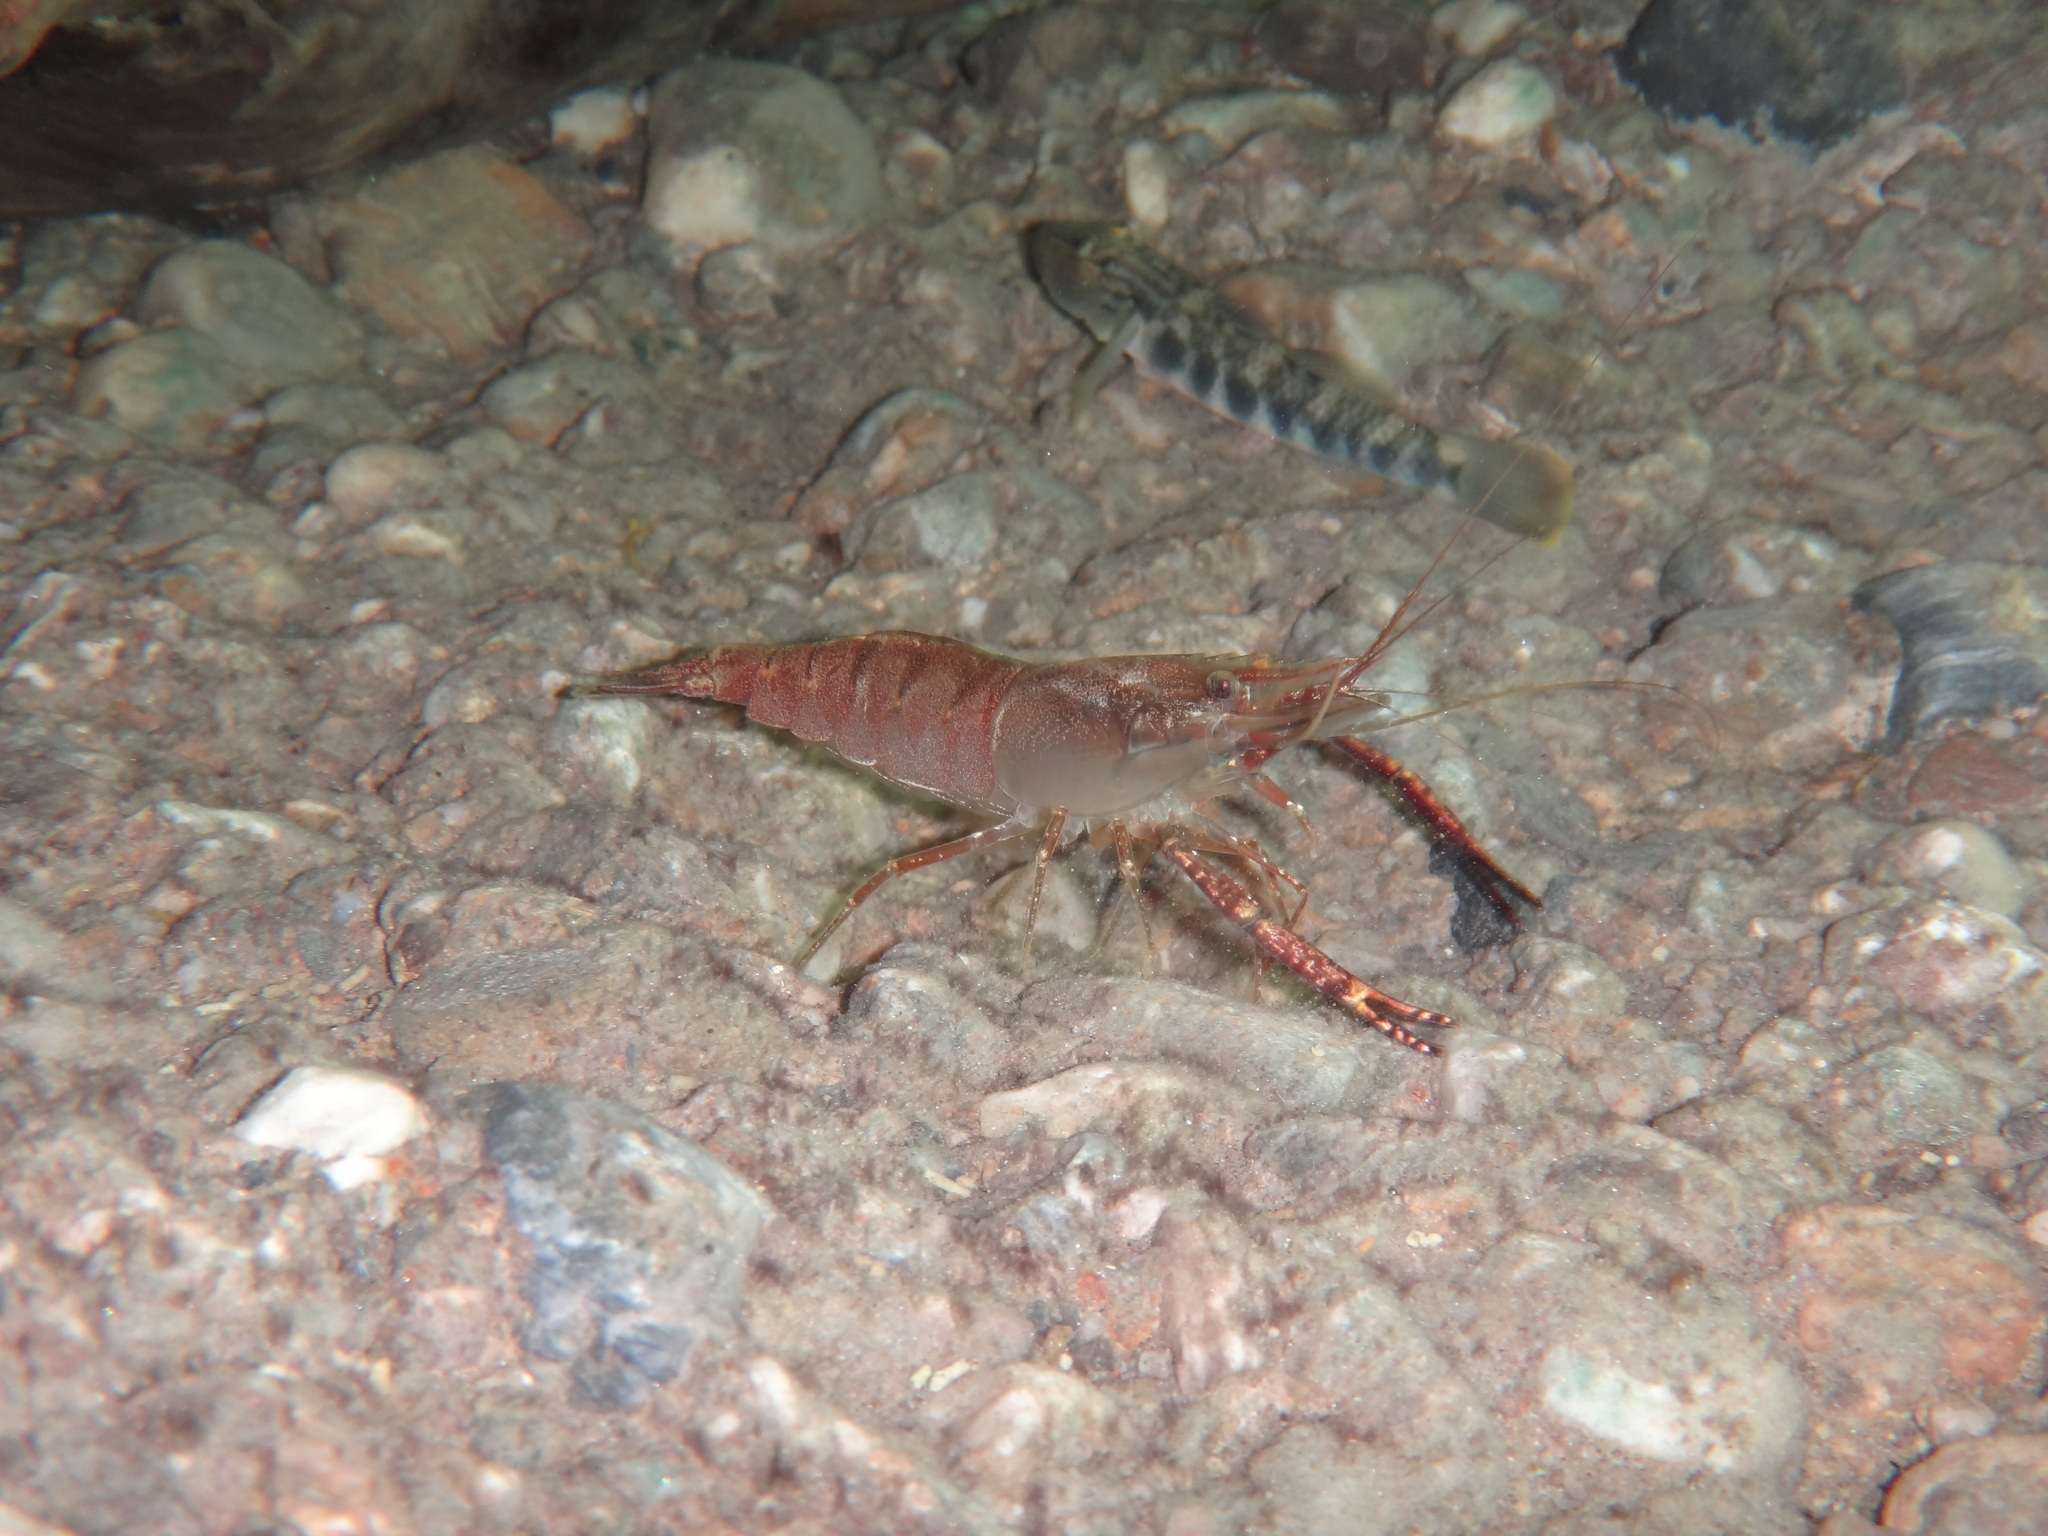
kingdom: Animalia
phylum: Arthropoda
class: Malacostraca
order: Decapoda
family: Palaemonidae
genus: Macrobrachium
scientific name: Macrobrachium lar
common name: Monkey river prawn
